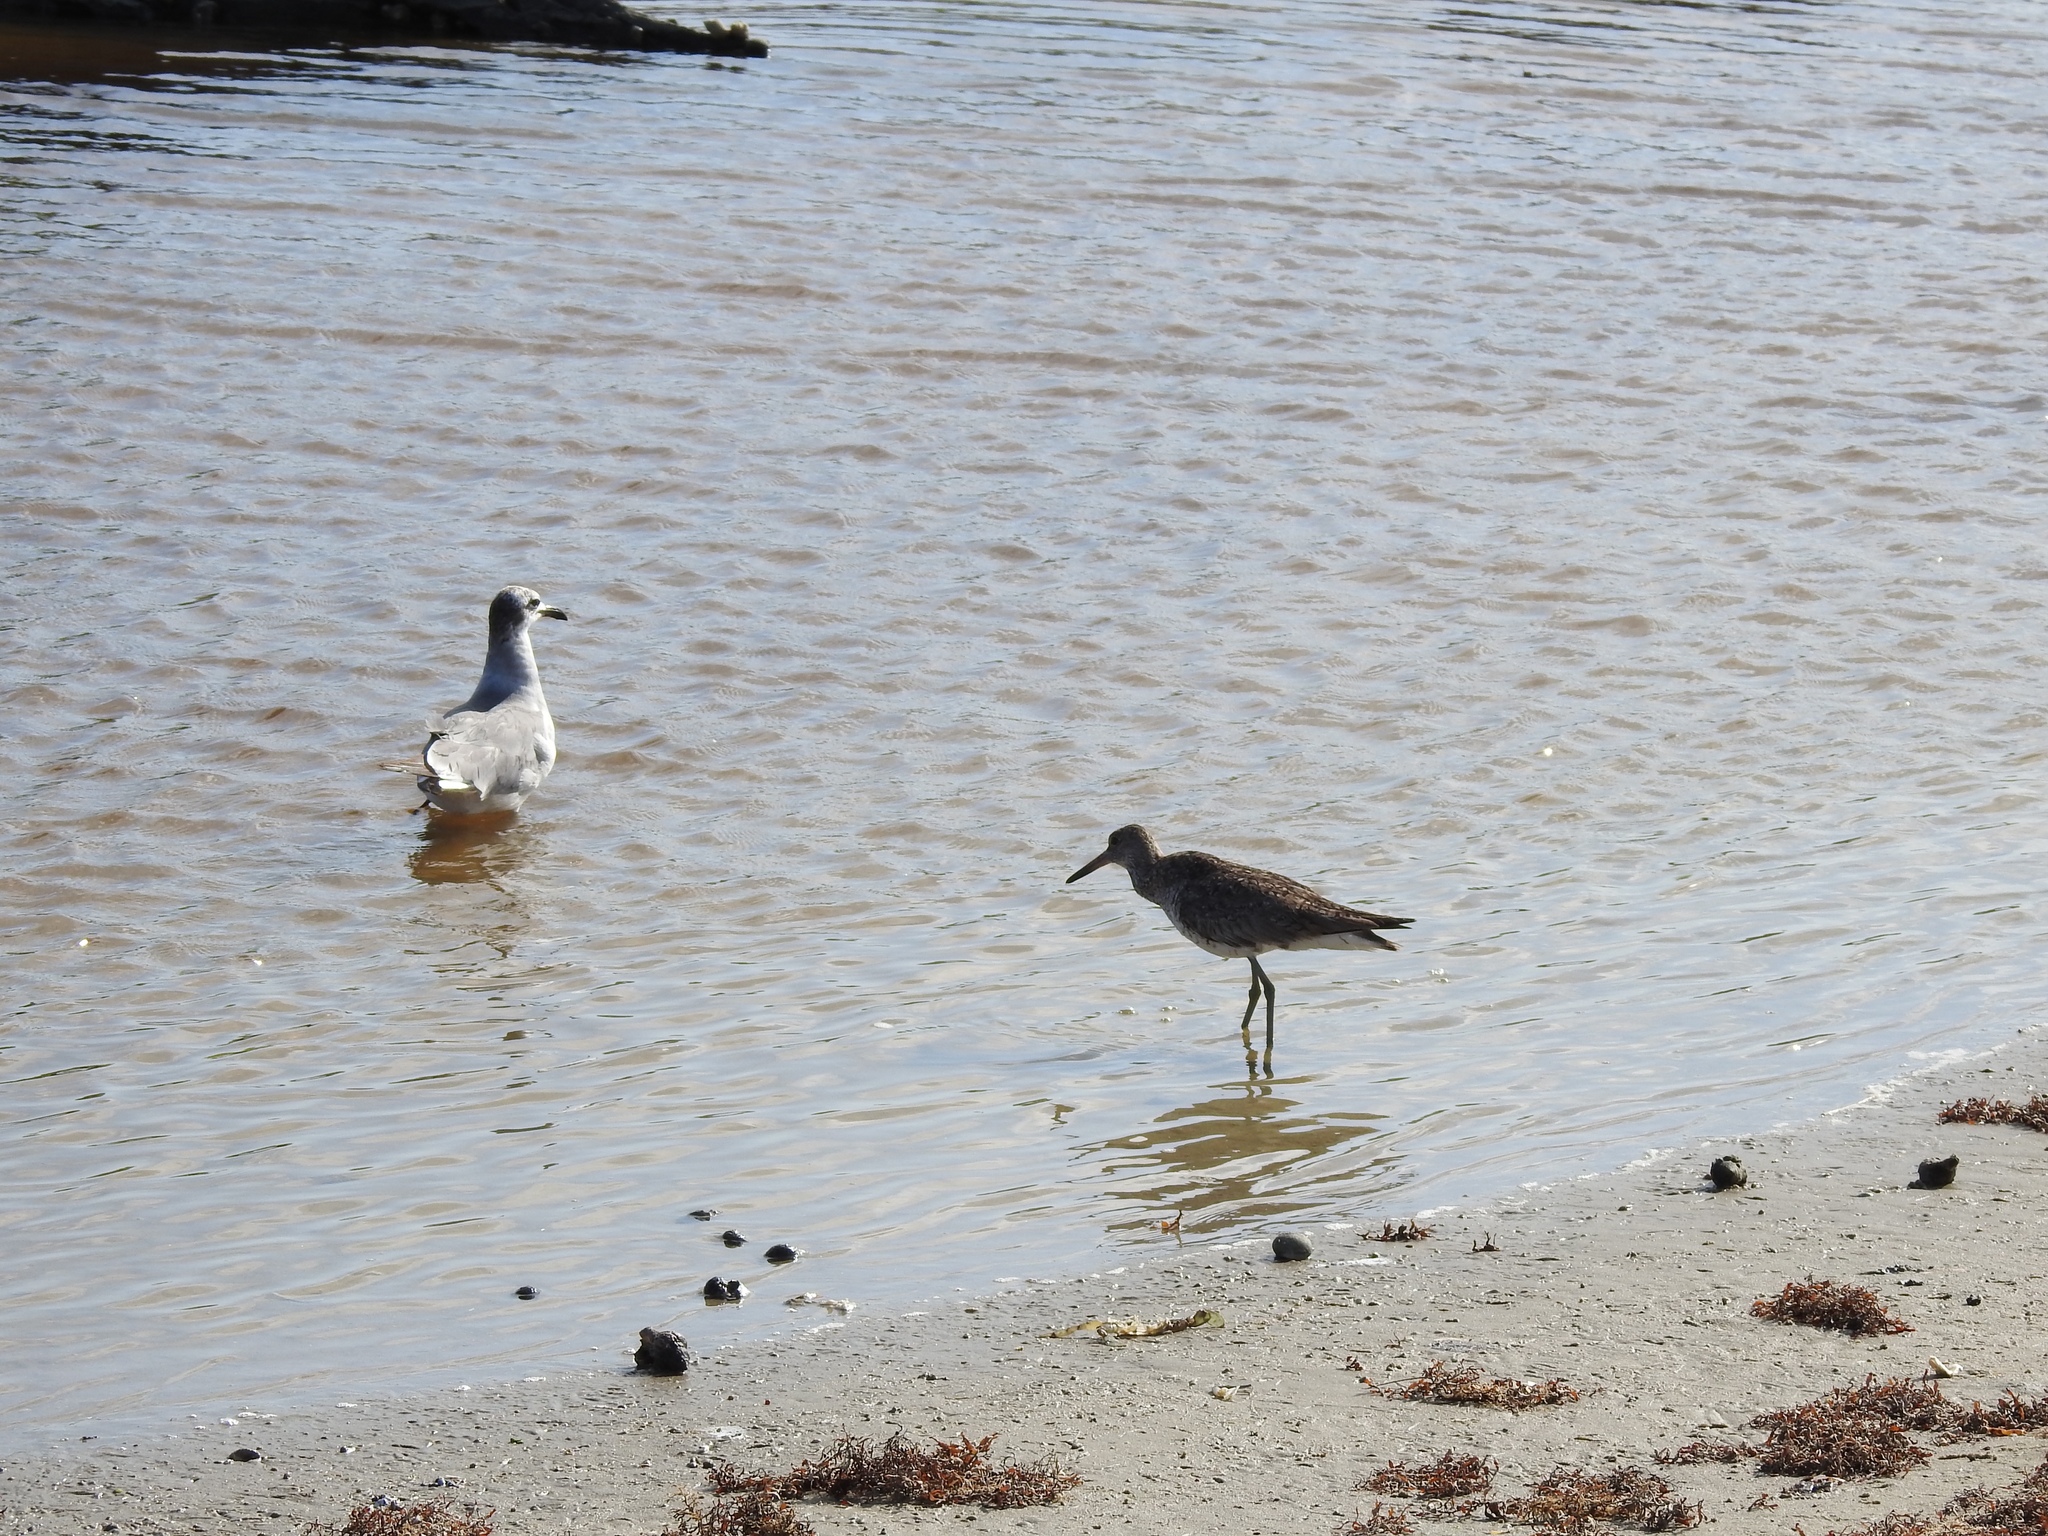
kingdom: Animalia
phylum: Chordata
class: Aves
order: Charadriiformes
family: Laridae
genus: Leucophaeus
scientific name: Leucophaeus atricilla
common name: Laughing gull
